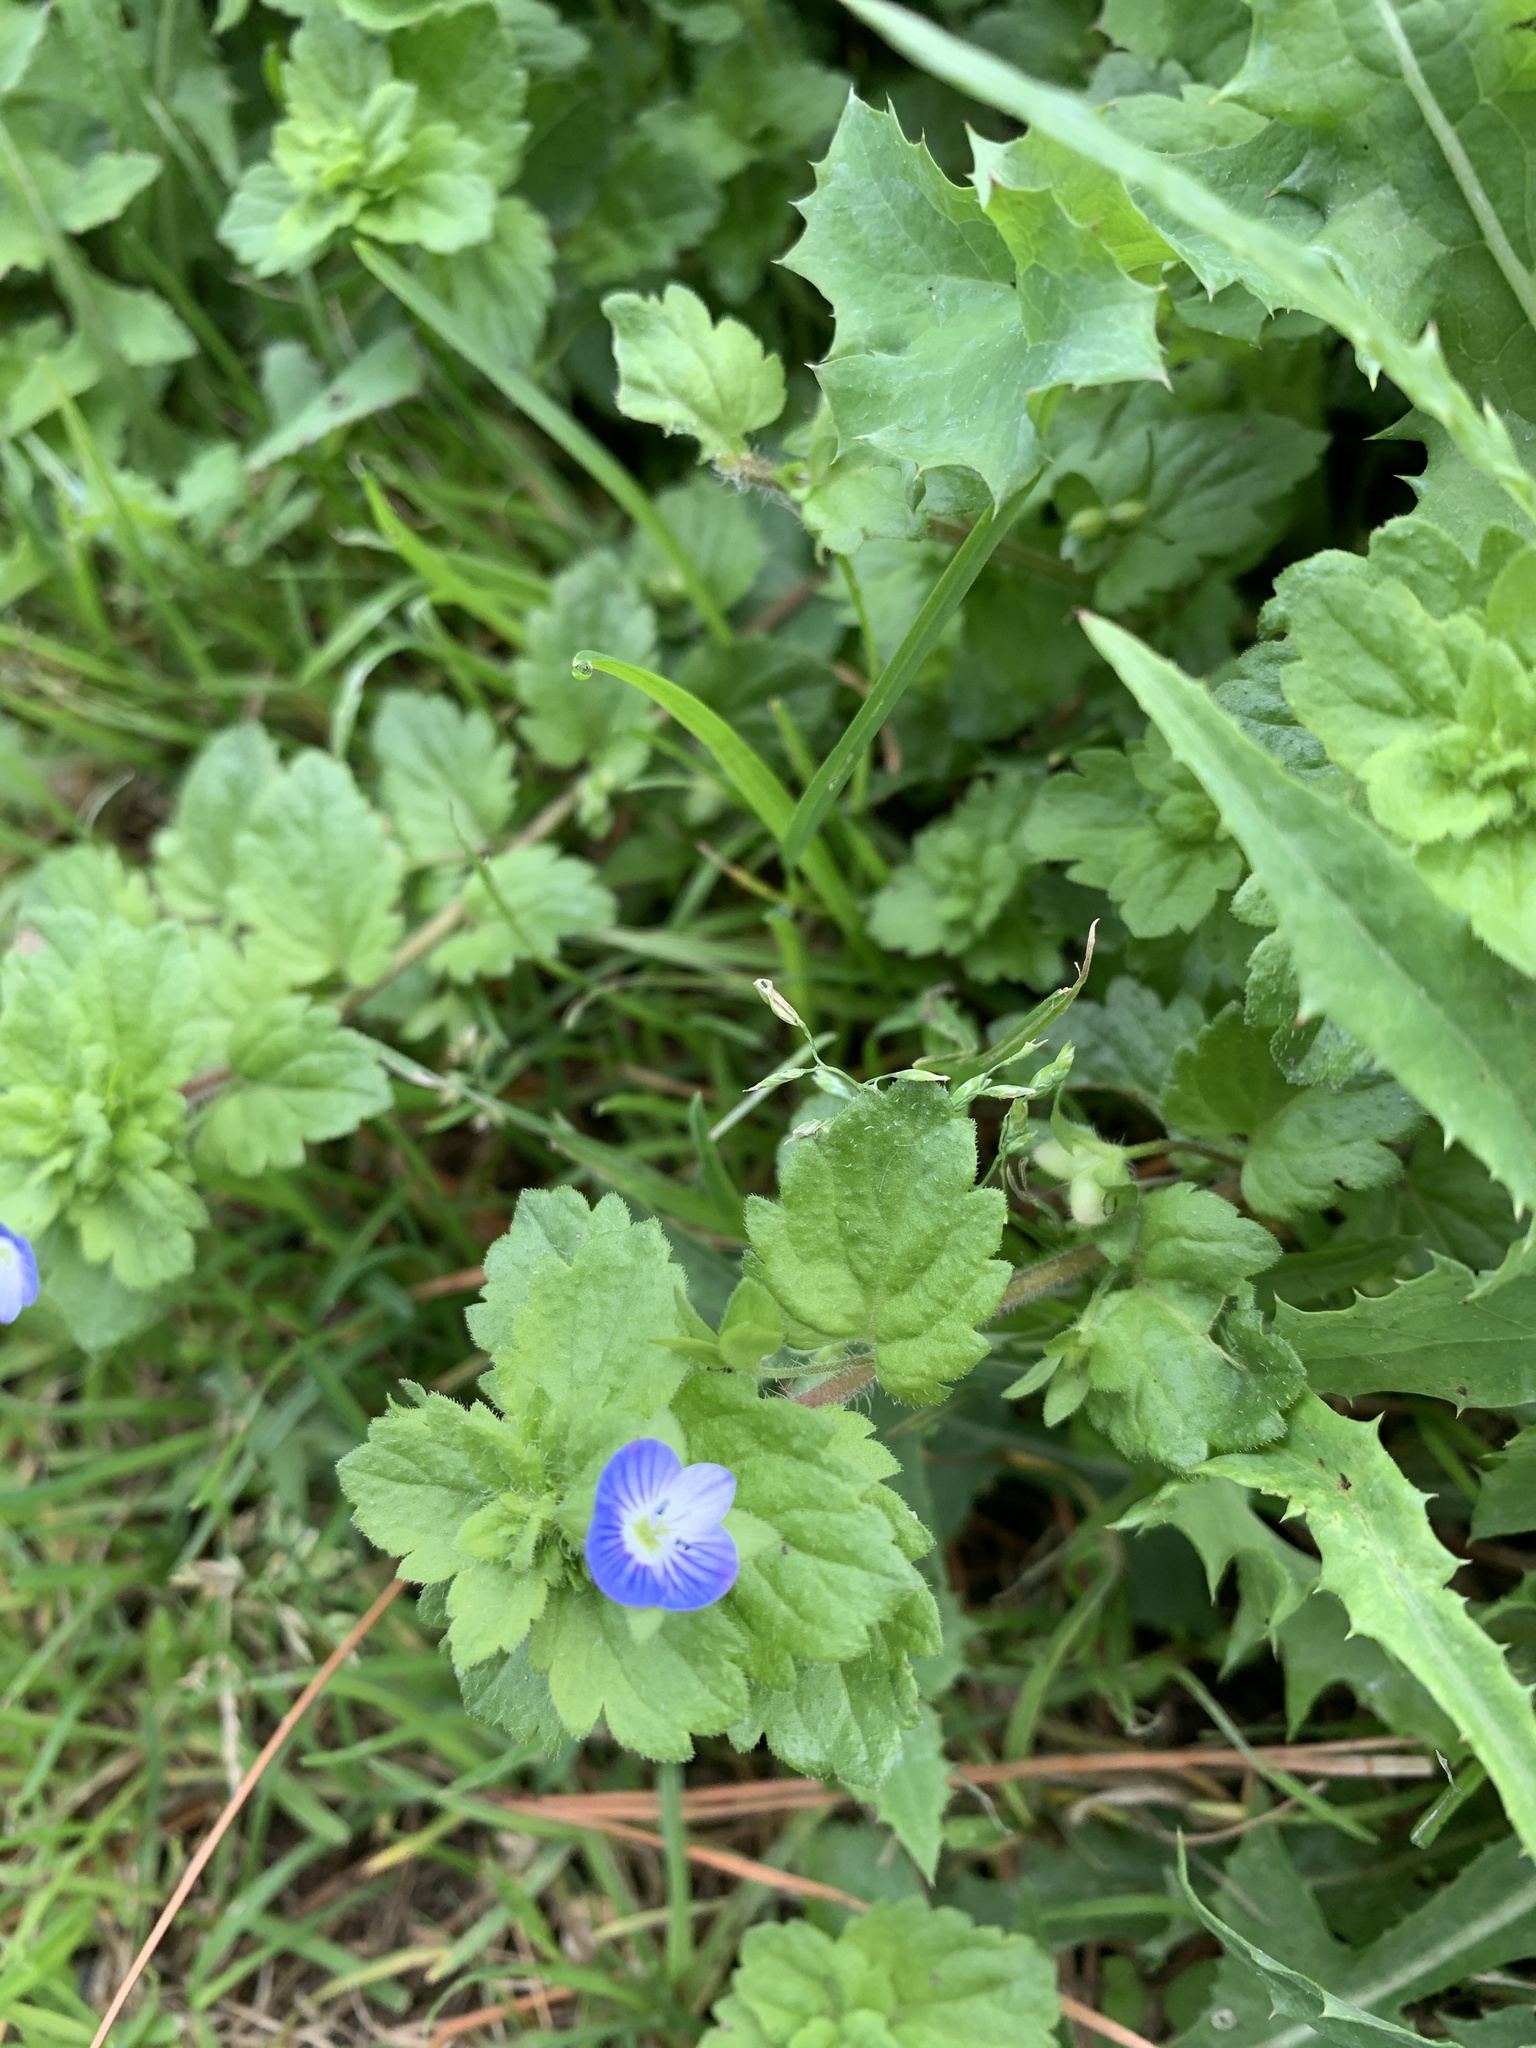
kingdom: Plantae
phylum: Tracheophyta
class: Magnoliopsida
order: Lamiales
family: Plantaginaceae
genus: Veronica
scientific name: Veronica persica
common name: Common field-speedwell
